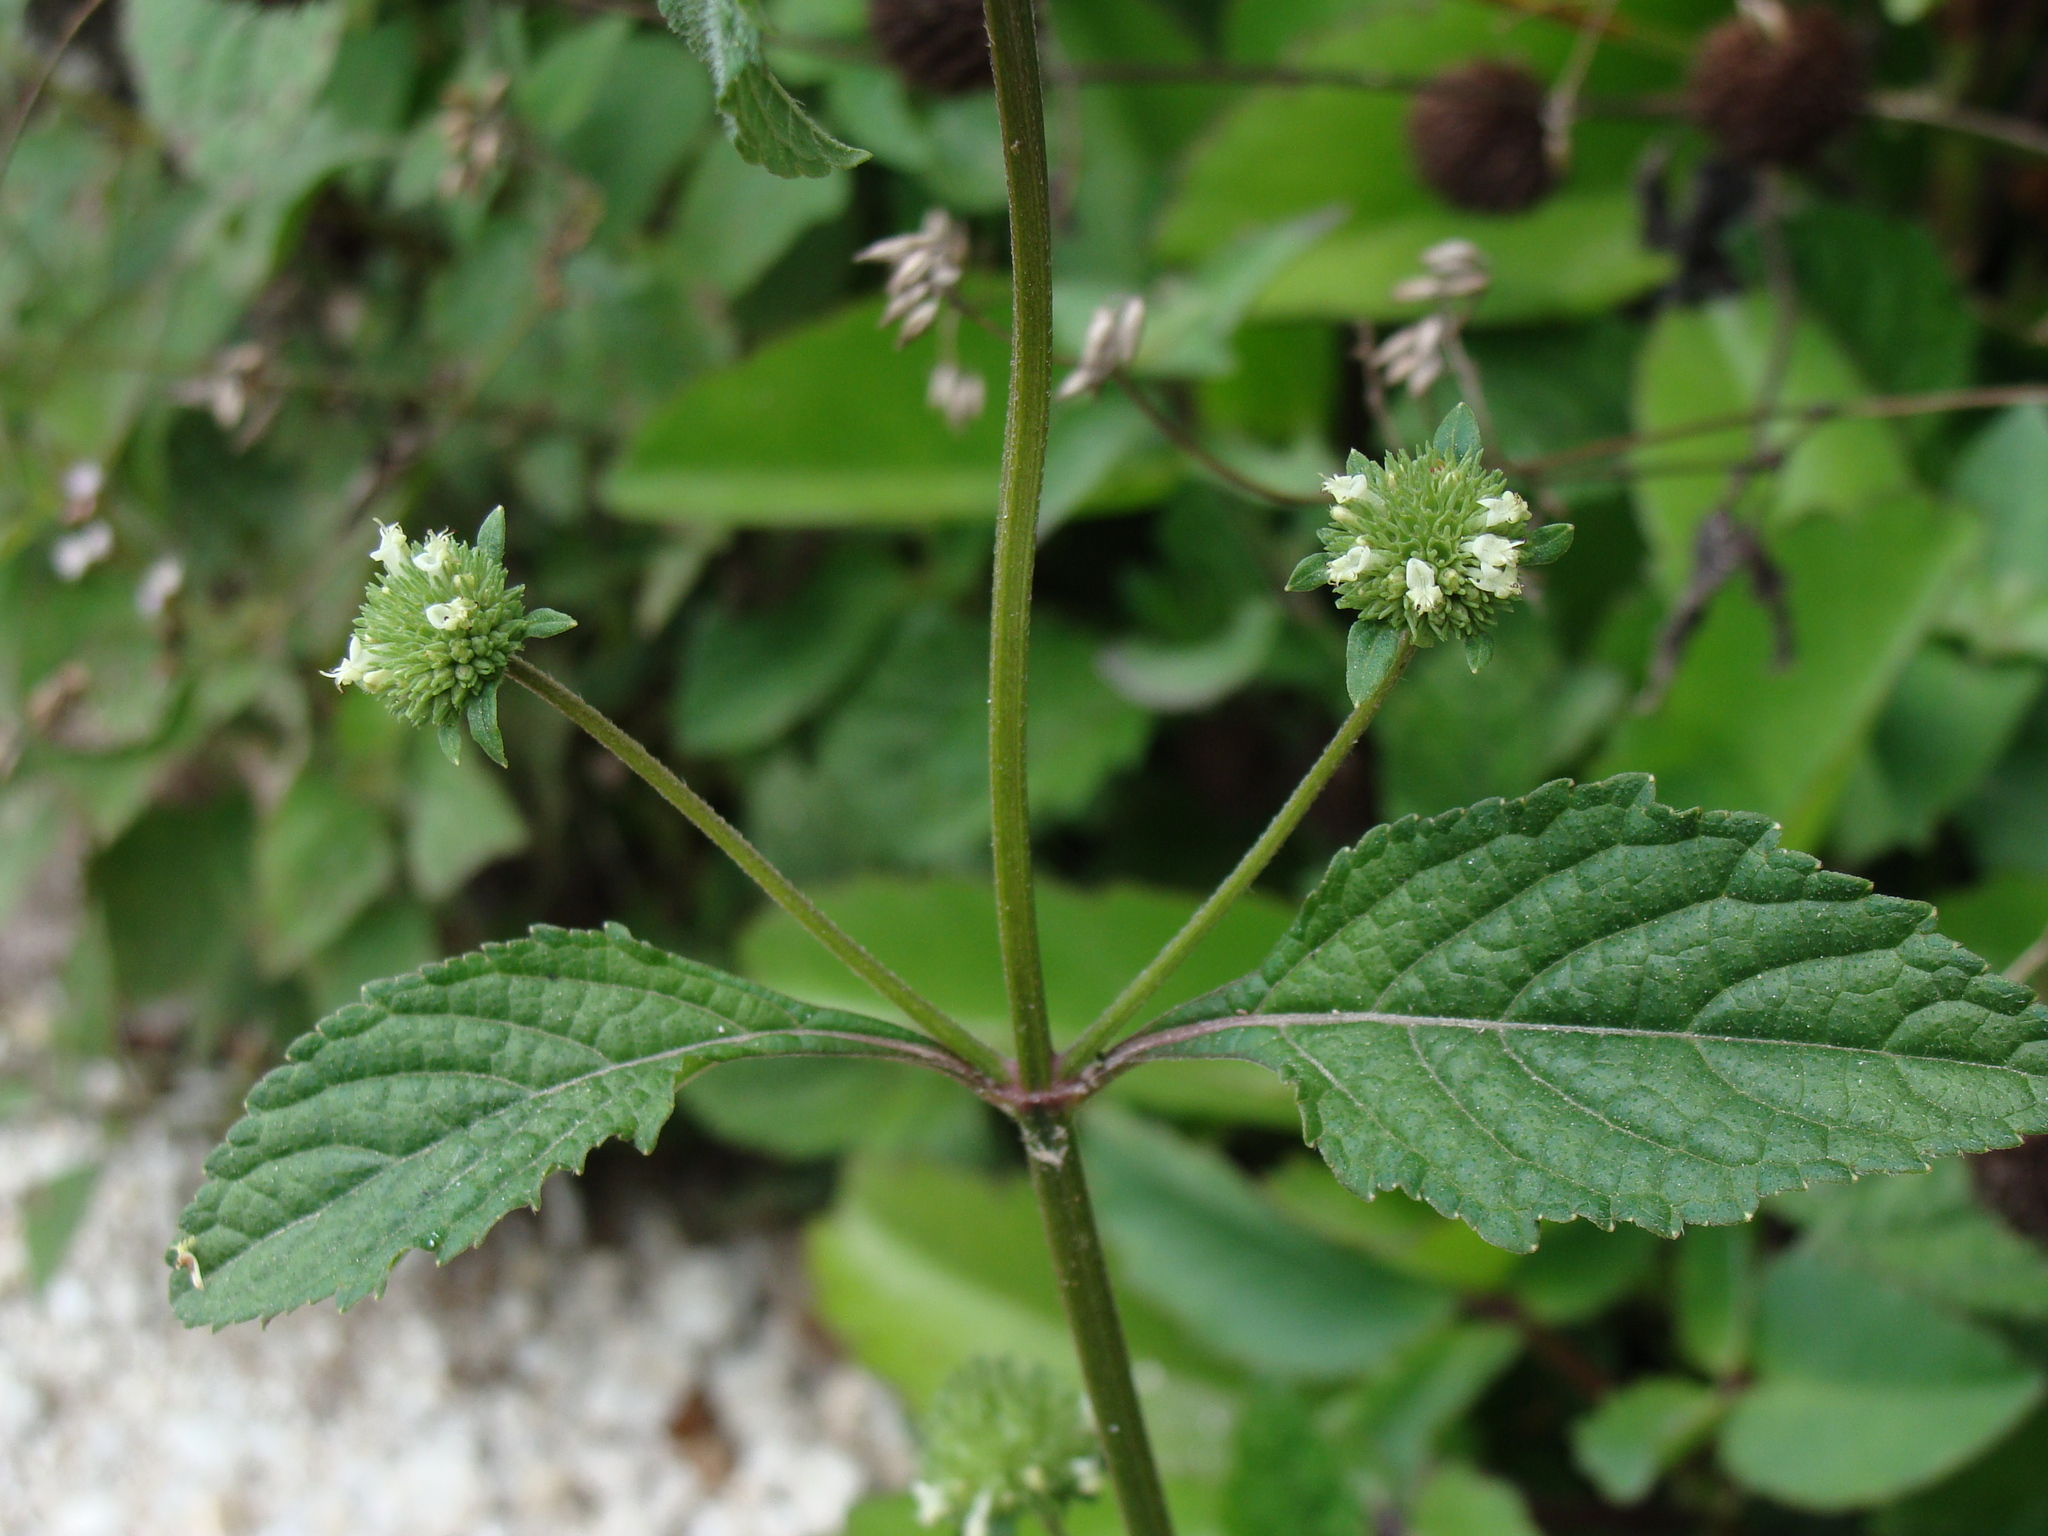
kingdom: Plantae
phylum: Tracheophyta
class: Magnoliopsida
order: Lamiales
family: Lamiaceae
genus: Hyptis
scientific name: Hyptis capitata
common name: False ironwort
